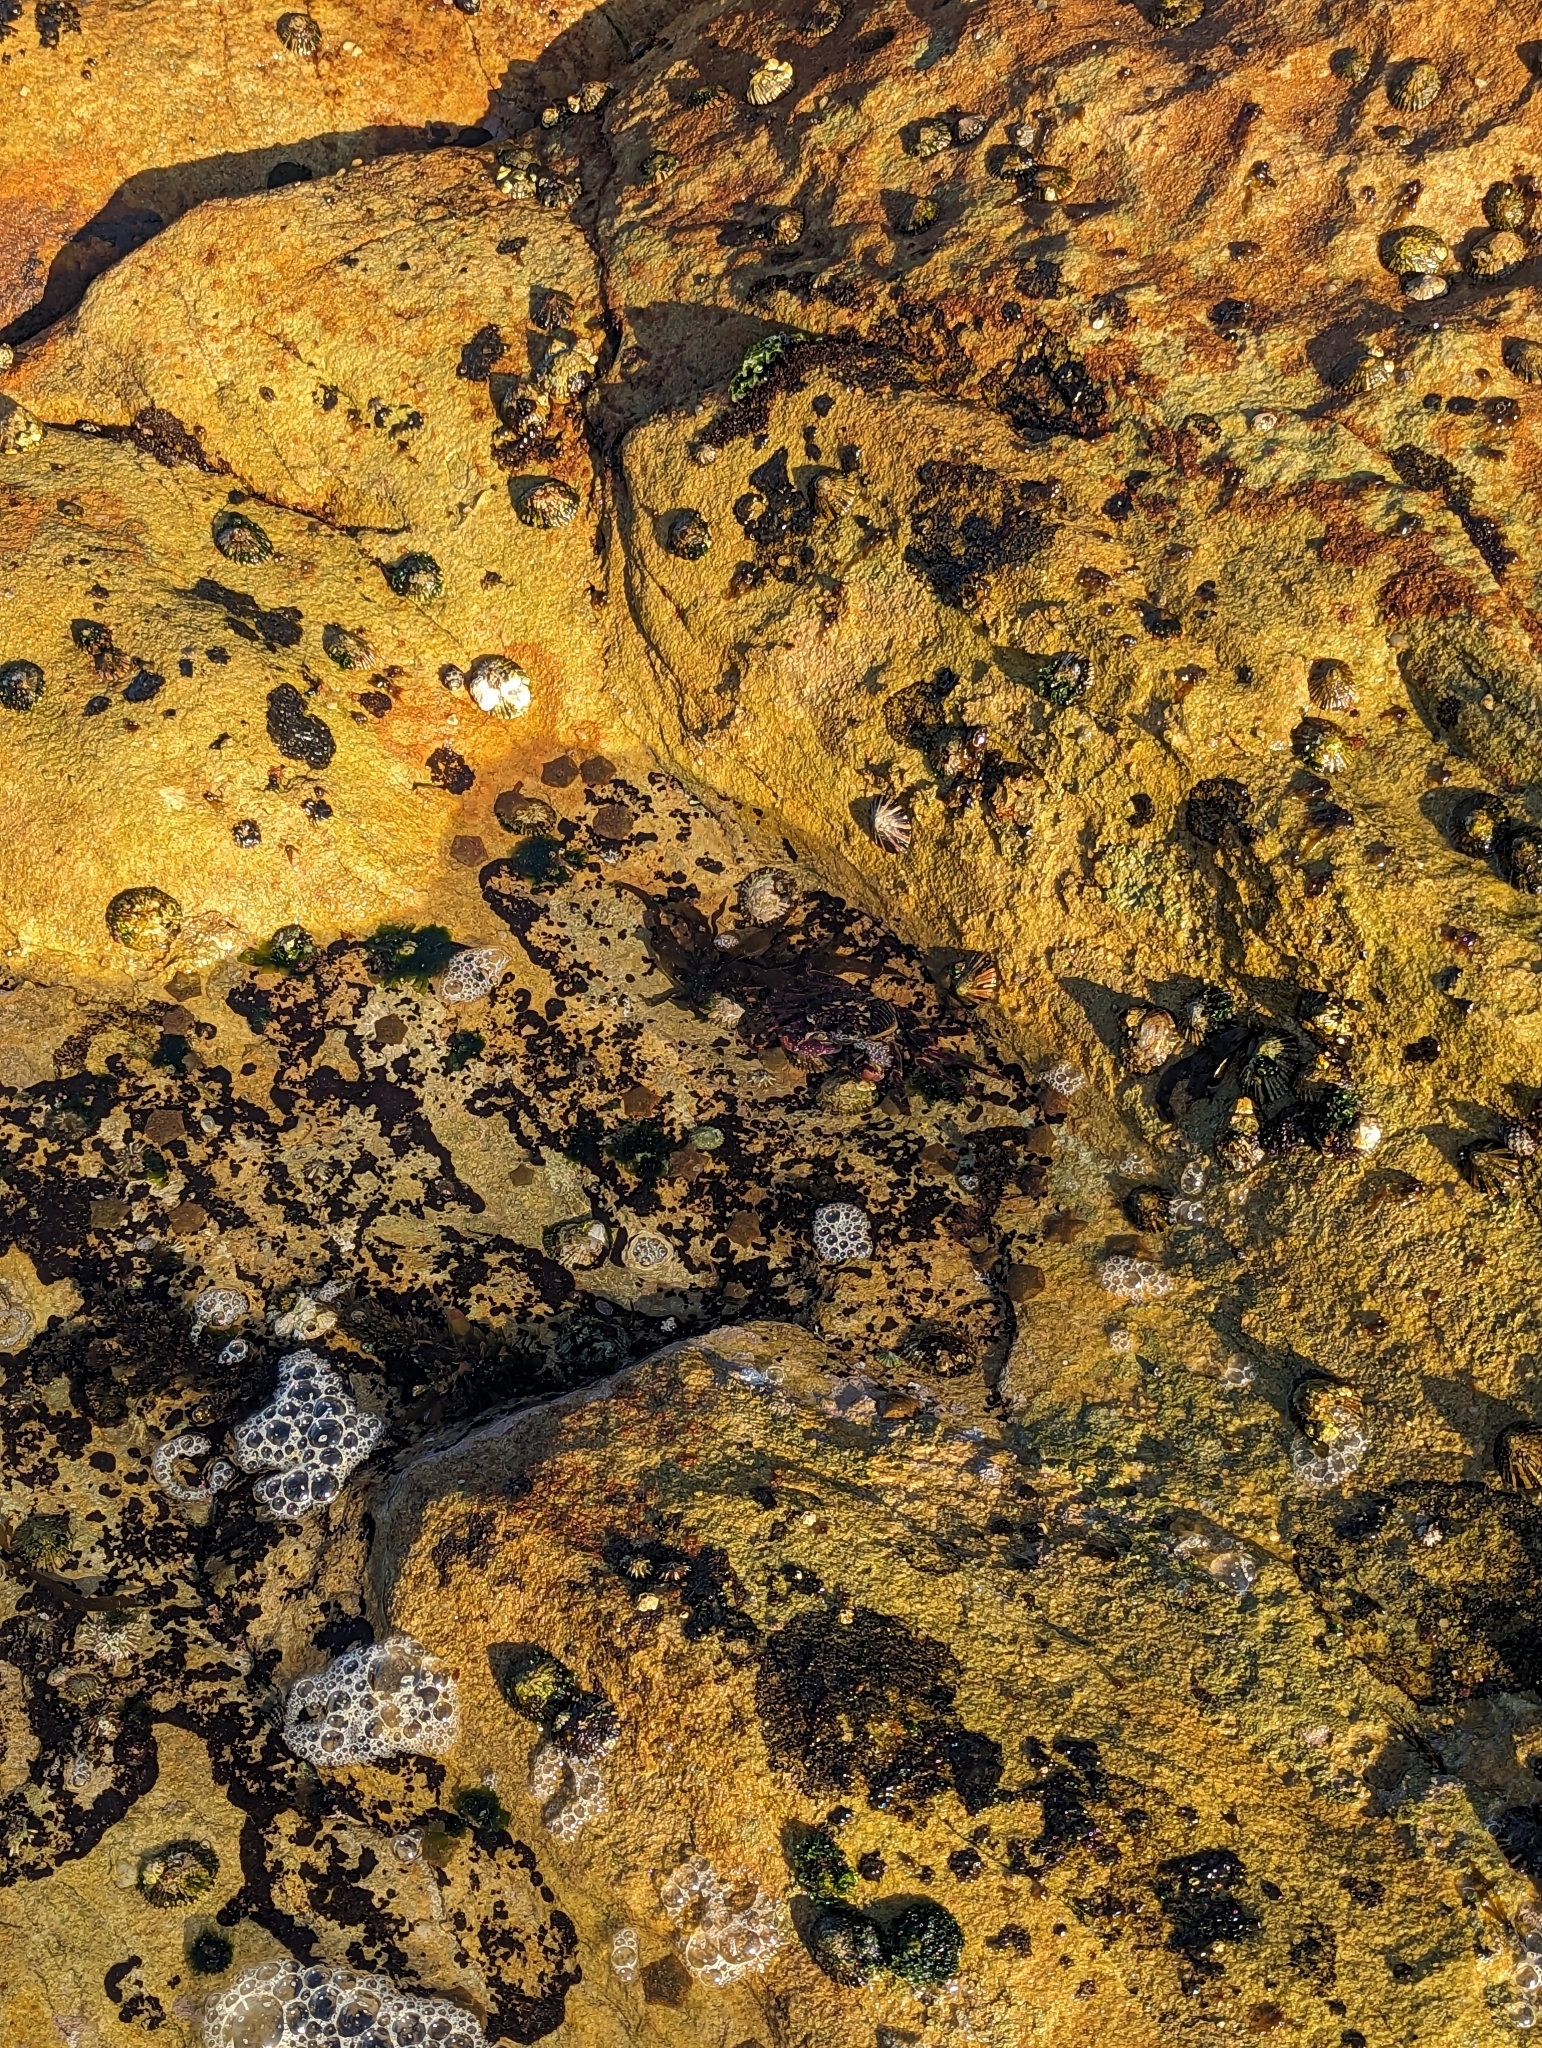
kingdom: Animalia
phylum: Arthropoda
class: Malacostraca
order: Decapoda
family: Grapsidae
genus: Leptograpsus
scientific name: Leptograpsus variegatus
